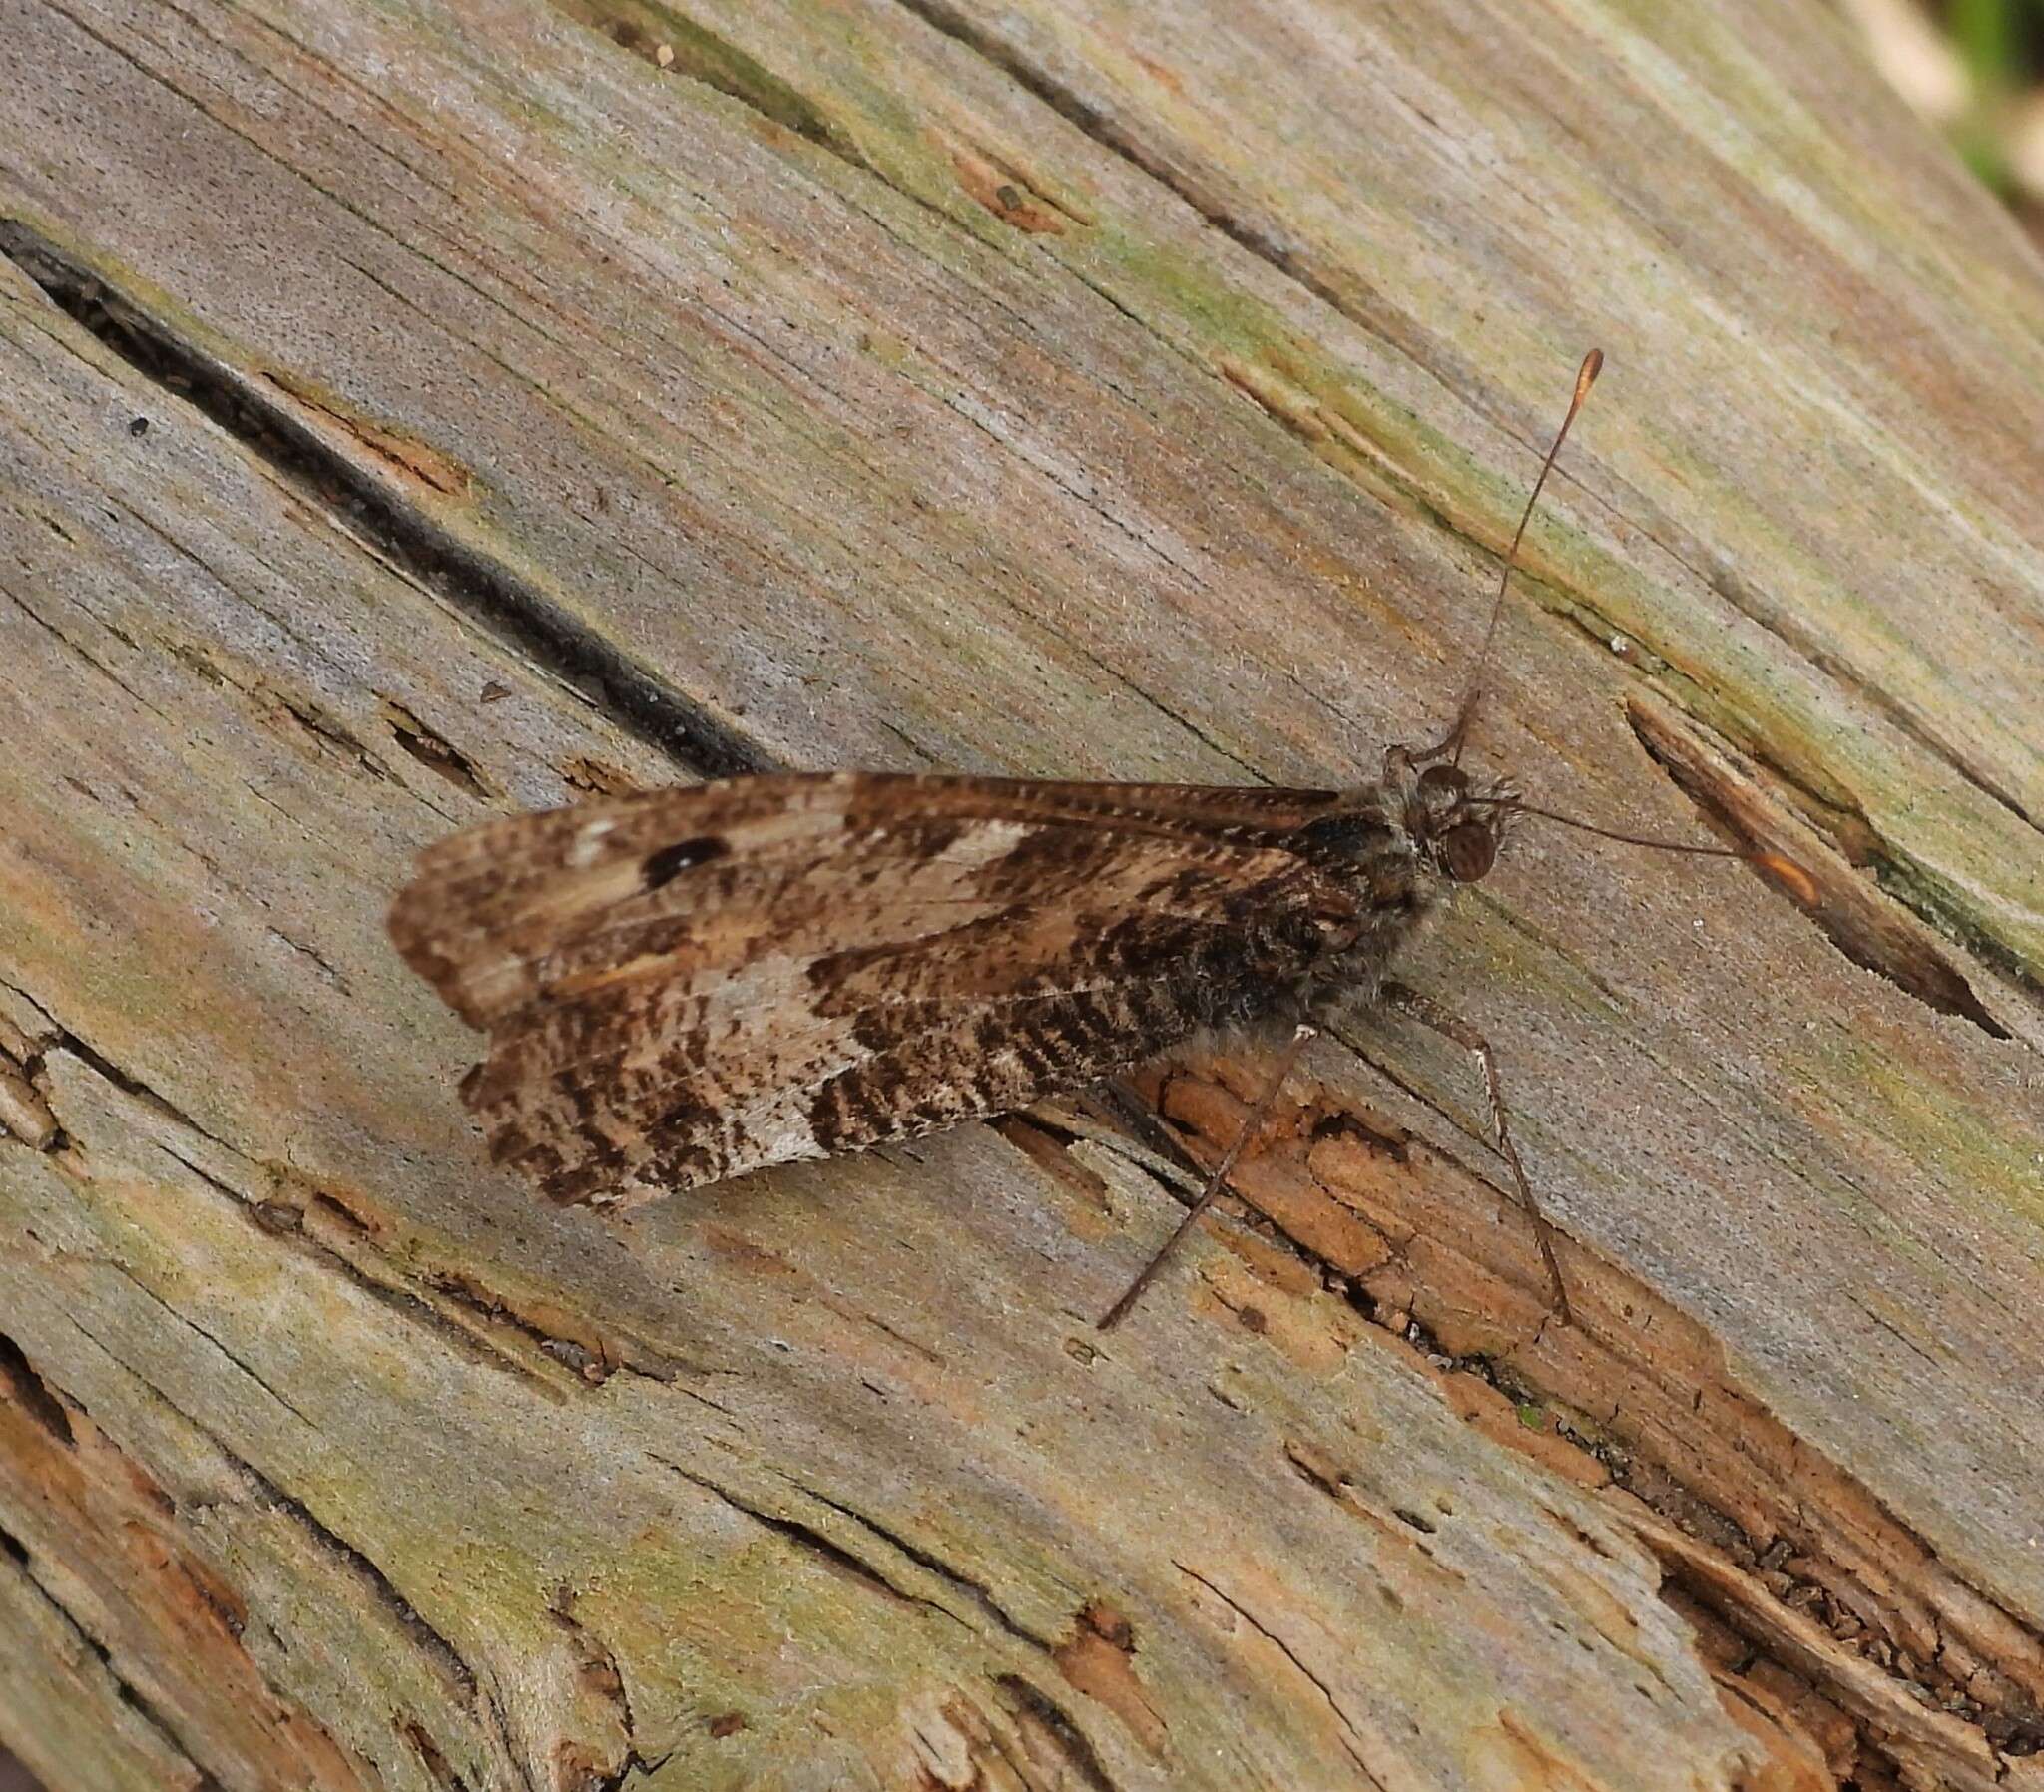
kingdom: Animalia
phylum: Arthropoda
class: Insecta
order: Lepidoptera
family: Nymphalidae
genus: Hipparchia
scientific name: Hipparchia semele
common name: Grayling
